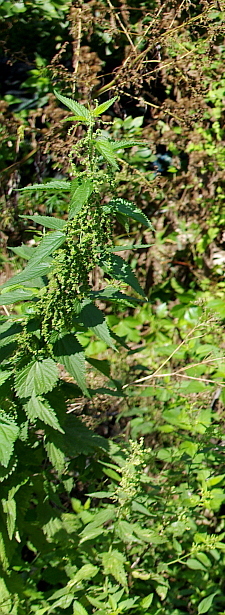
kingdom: Plantae
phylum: Tracheophyta
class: Magnoliopsida
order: Rosales
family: Urticaceae
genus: Urtica
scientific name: Urtica dioica
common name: Common nettle
